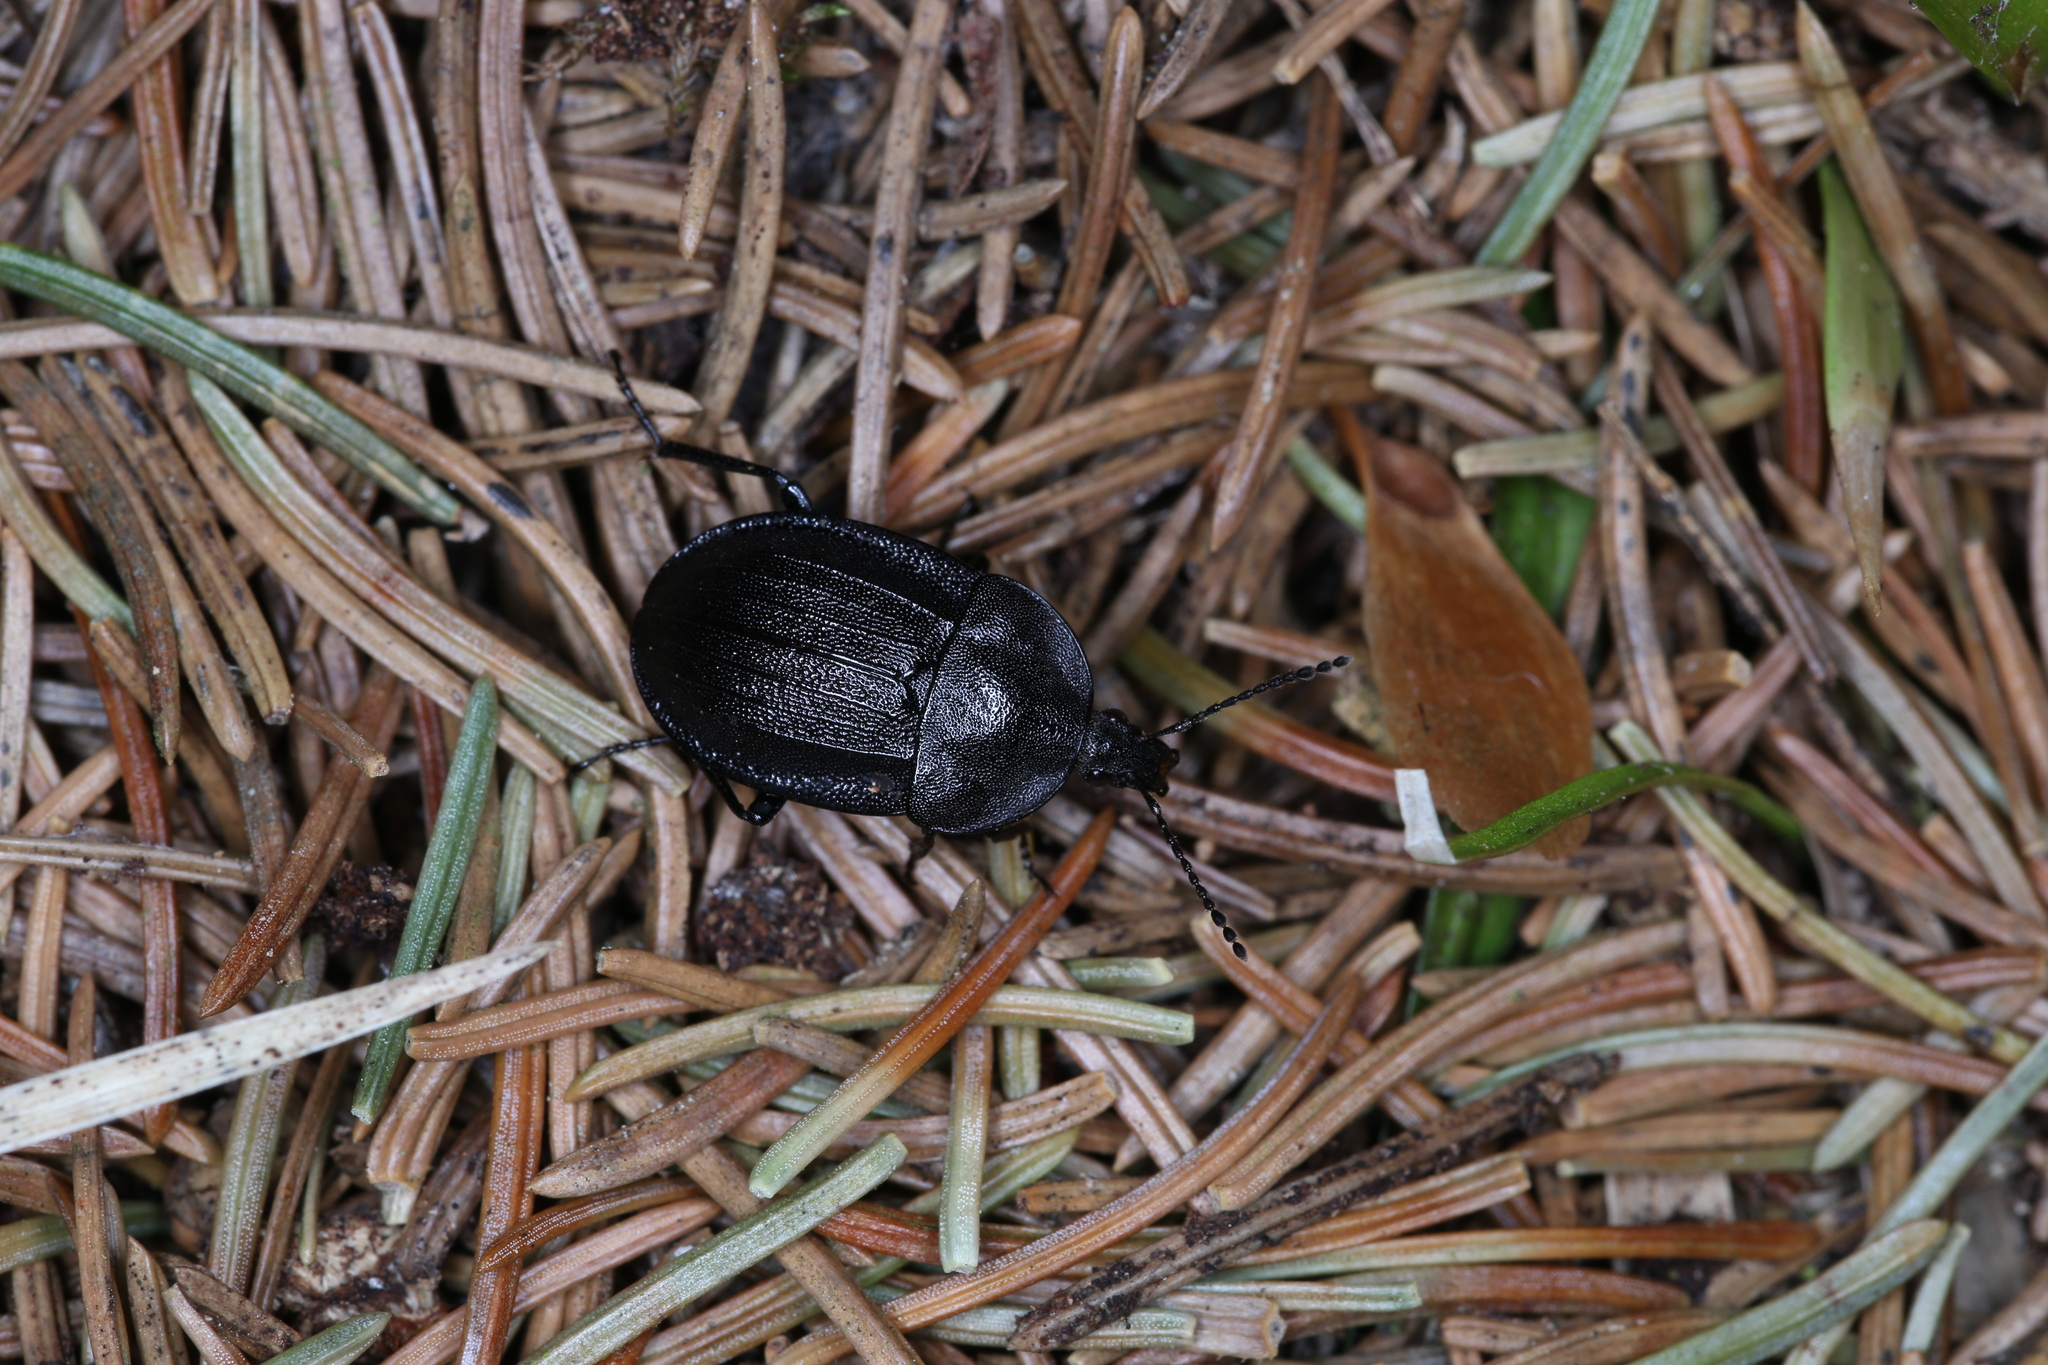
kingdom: Animalia
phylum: Arthropoda
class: Insecta
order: Coleoptera
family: Staphylinidae
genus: Silpha
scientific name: Silpha atrata
